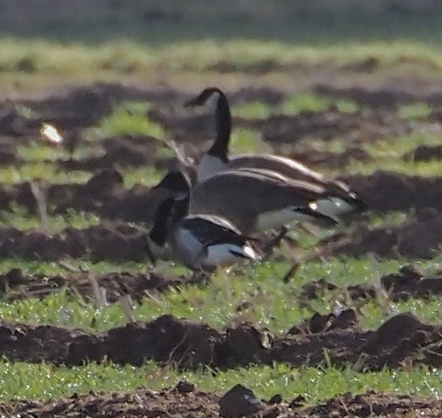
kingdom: Animalia
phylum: Chordata
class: Aves
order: Anseriformes
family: Anatidae
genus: Branta
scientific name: Branta bernicla
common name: Brant goose
